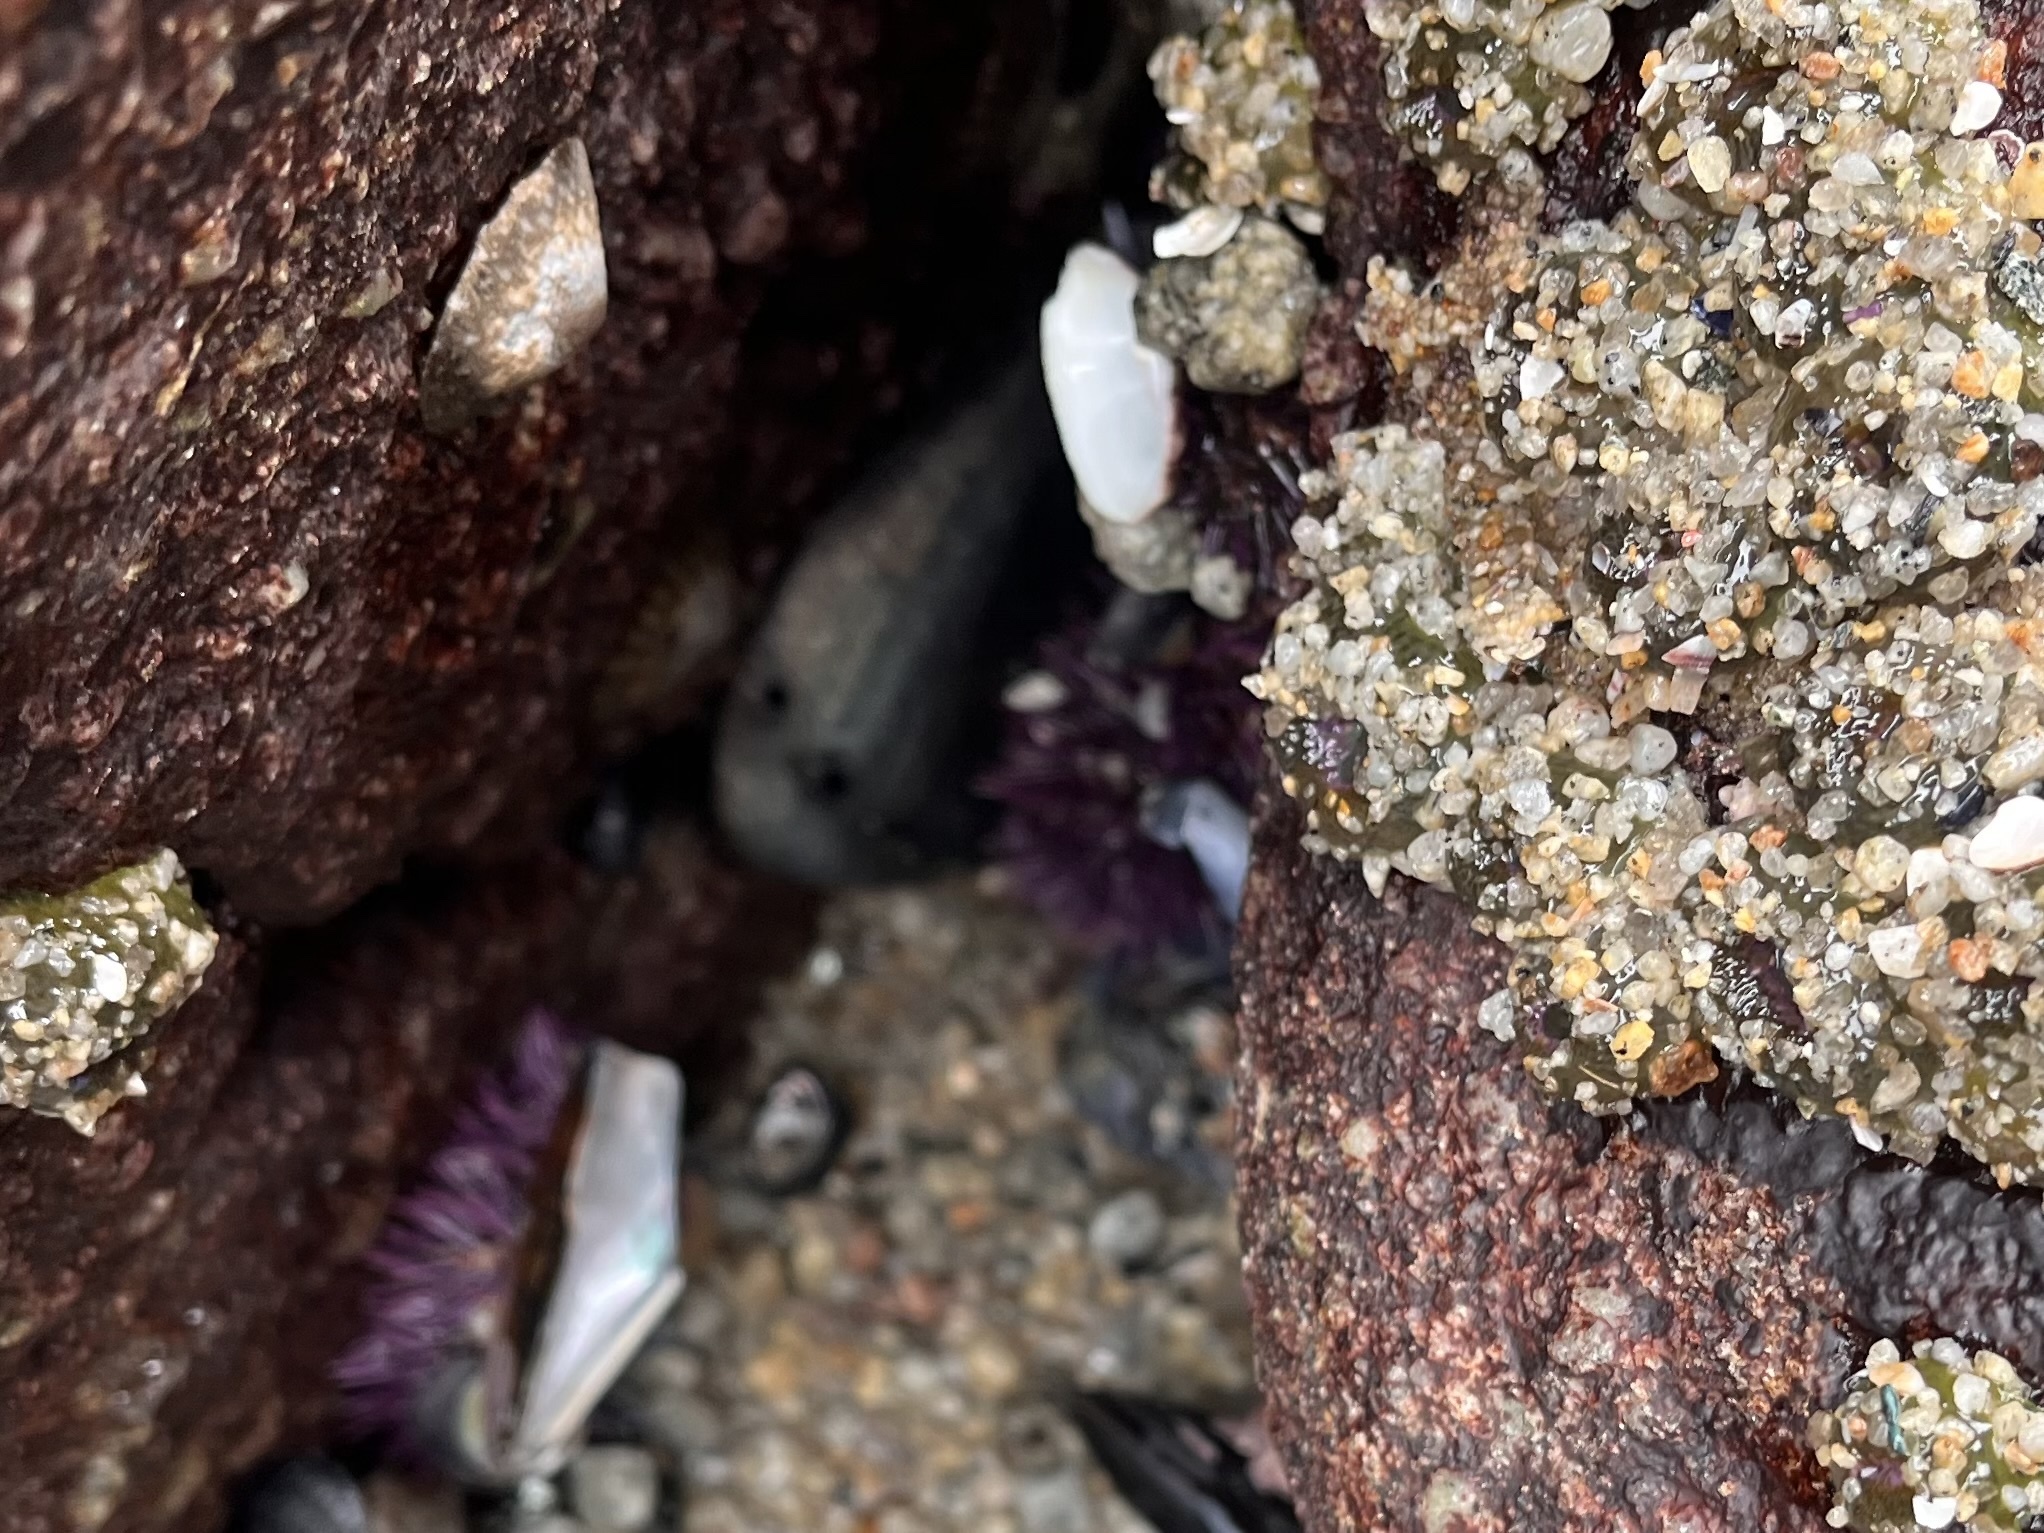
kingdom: Animalia
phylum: Mollusca
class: Gastropoda
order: Lepetellida
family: Haliotidae
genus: Haliotis
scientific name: Haliotis cracherodii
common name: Black abalone
